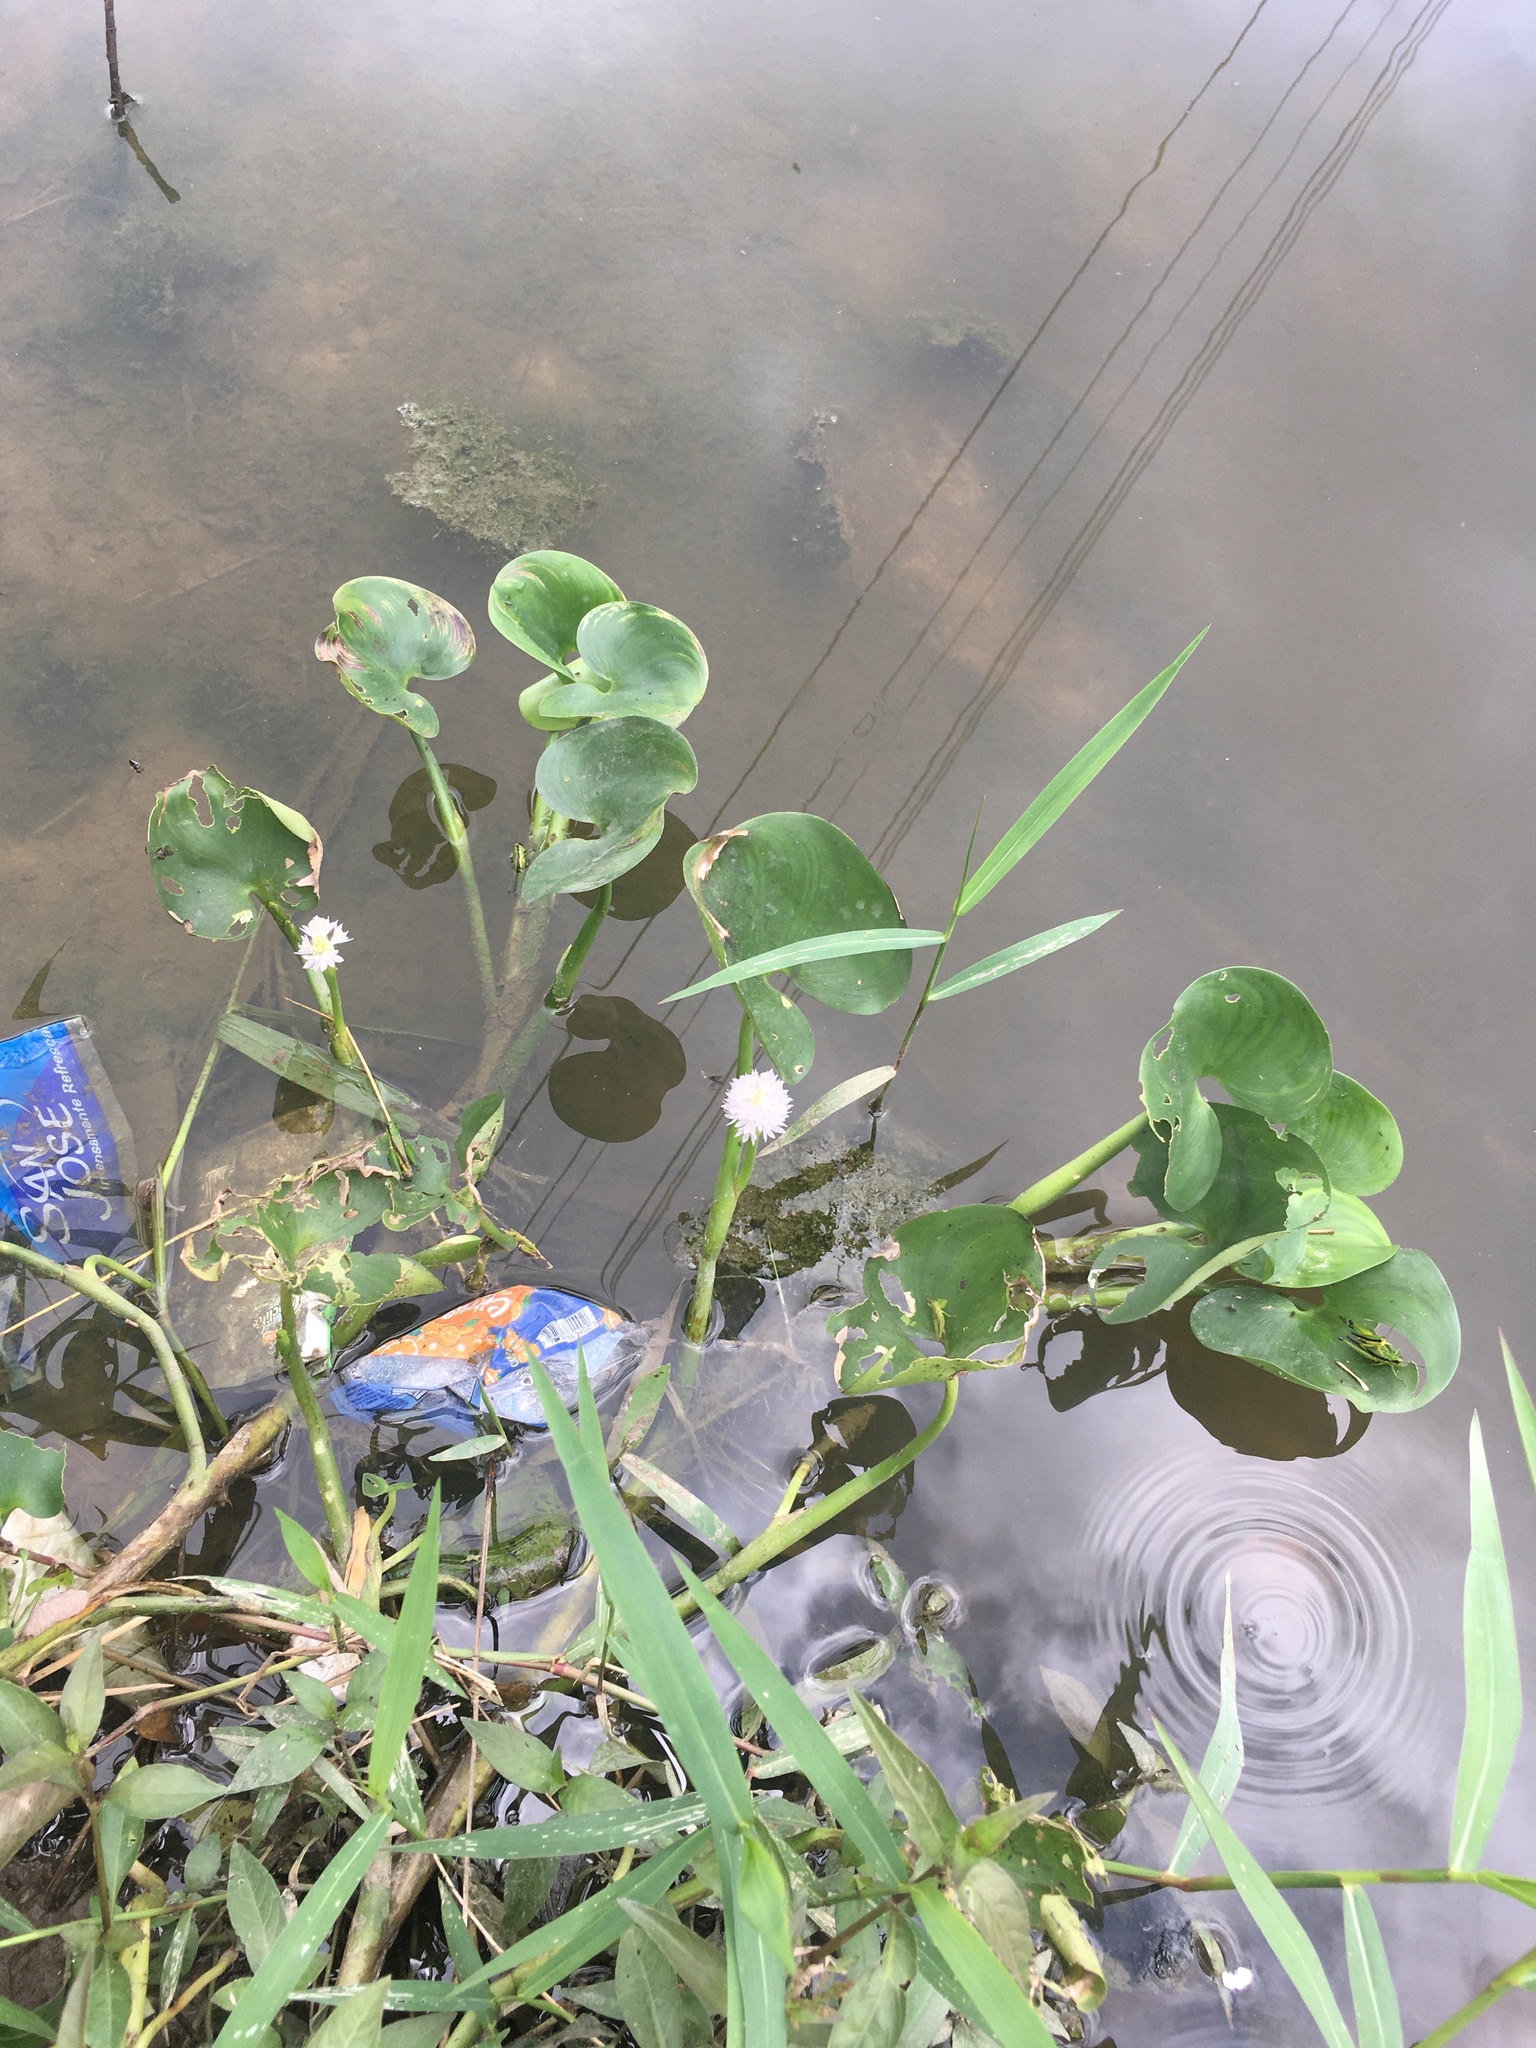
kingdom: Plantae
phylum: Tracheophyta
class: Liliopsida
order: Commelinales
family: Pontederiaceae
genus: Pontederia
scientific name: Pontederia crassipes
